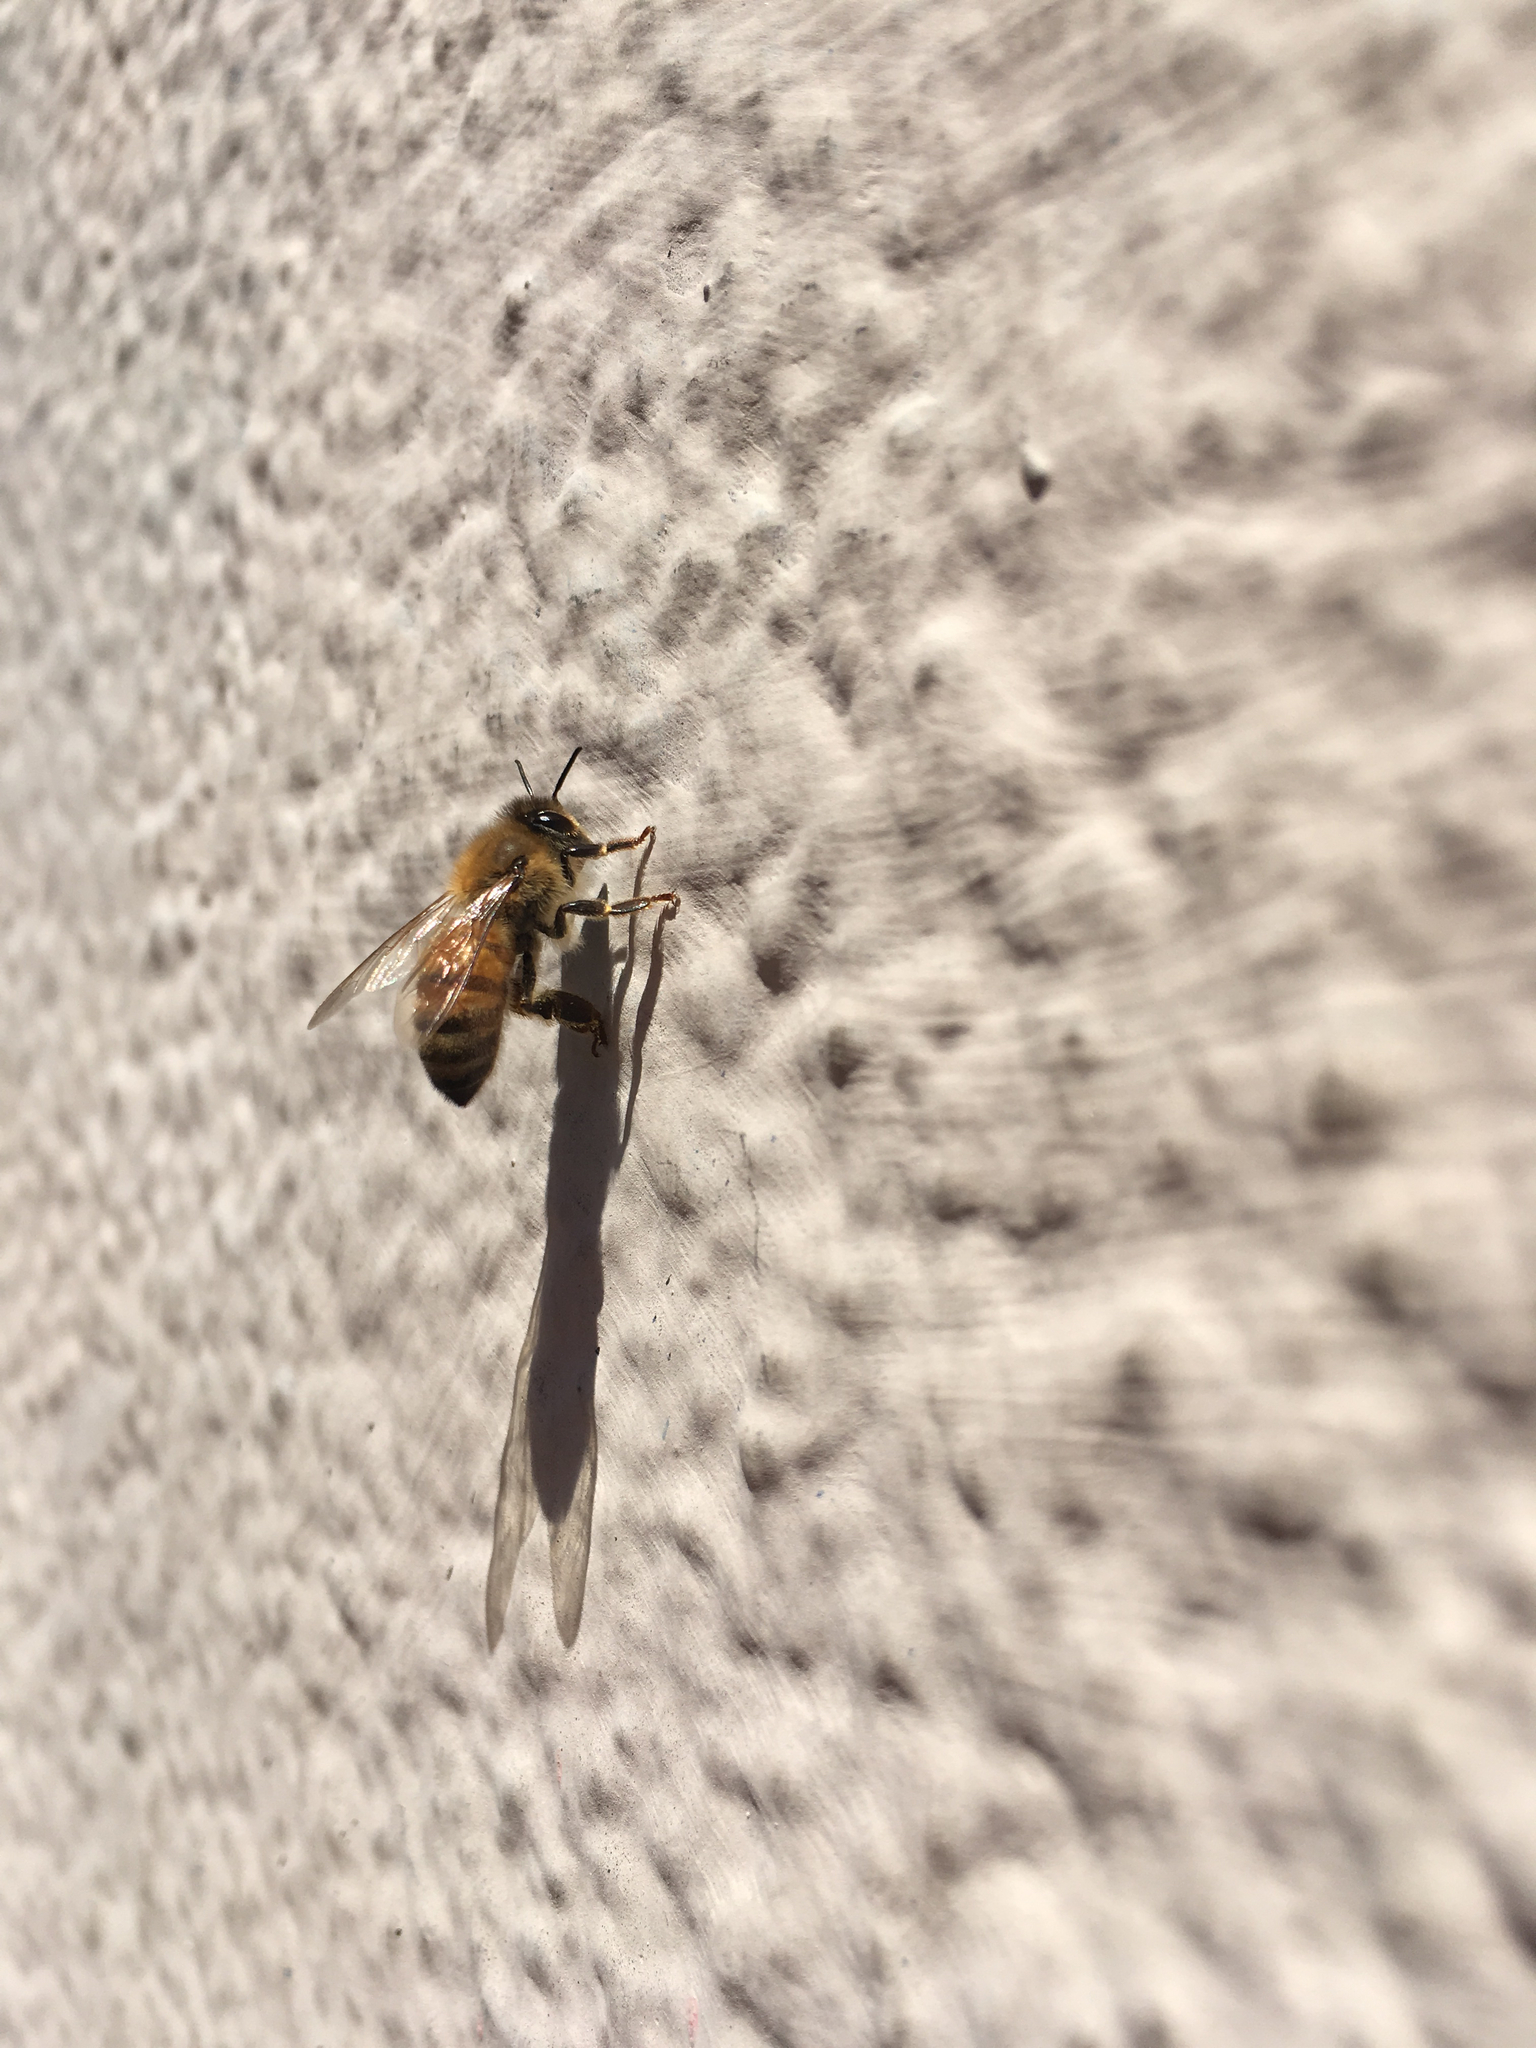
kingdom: Animalia
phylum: Arthropoda
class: Insecta
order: Hymenoptera
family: Apidae
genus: Apis
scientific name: Apis mellifera
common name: Honey bee
